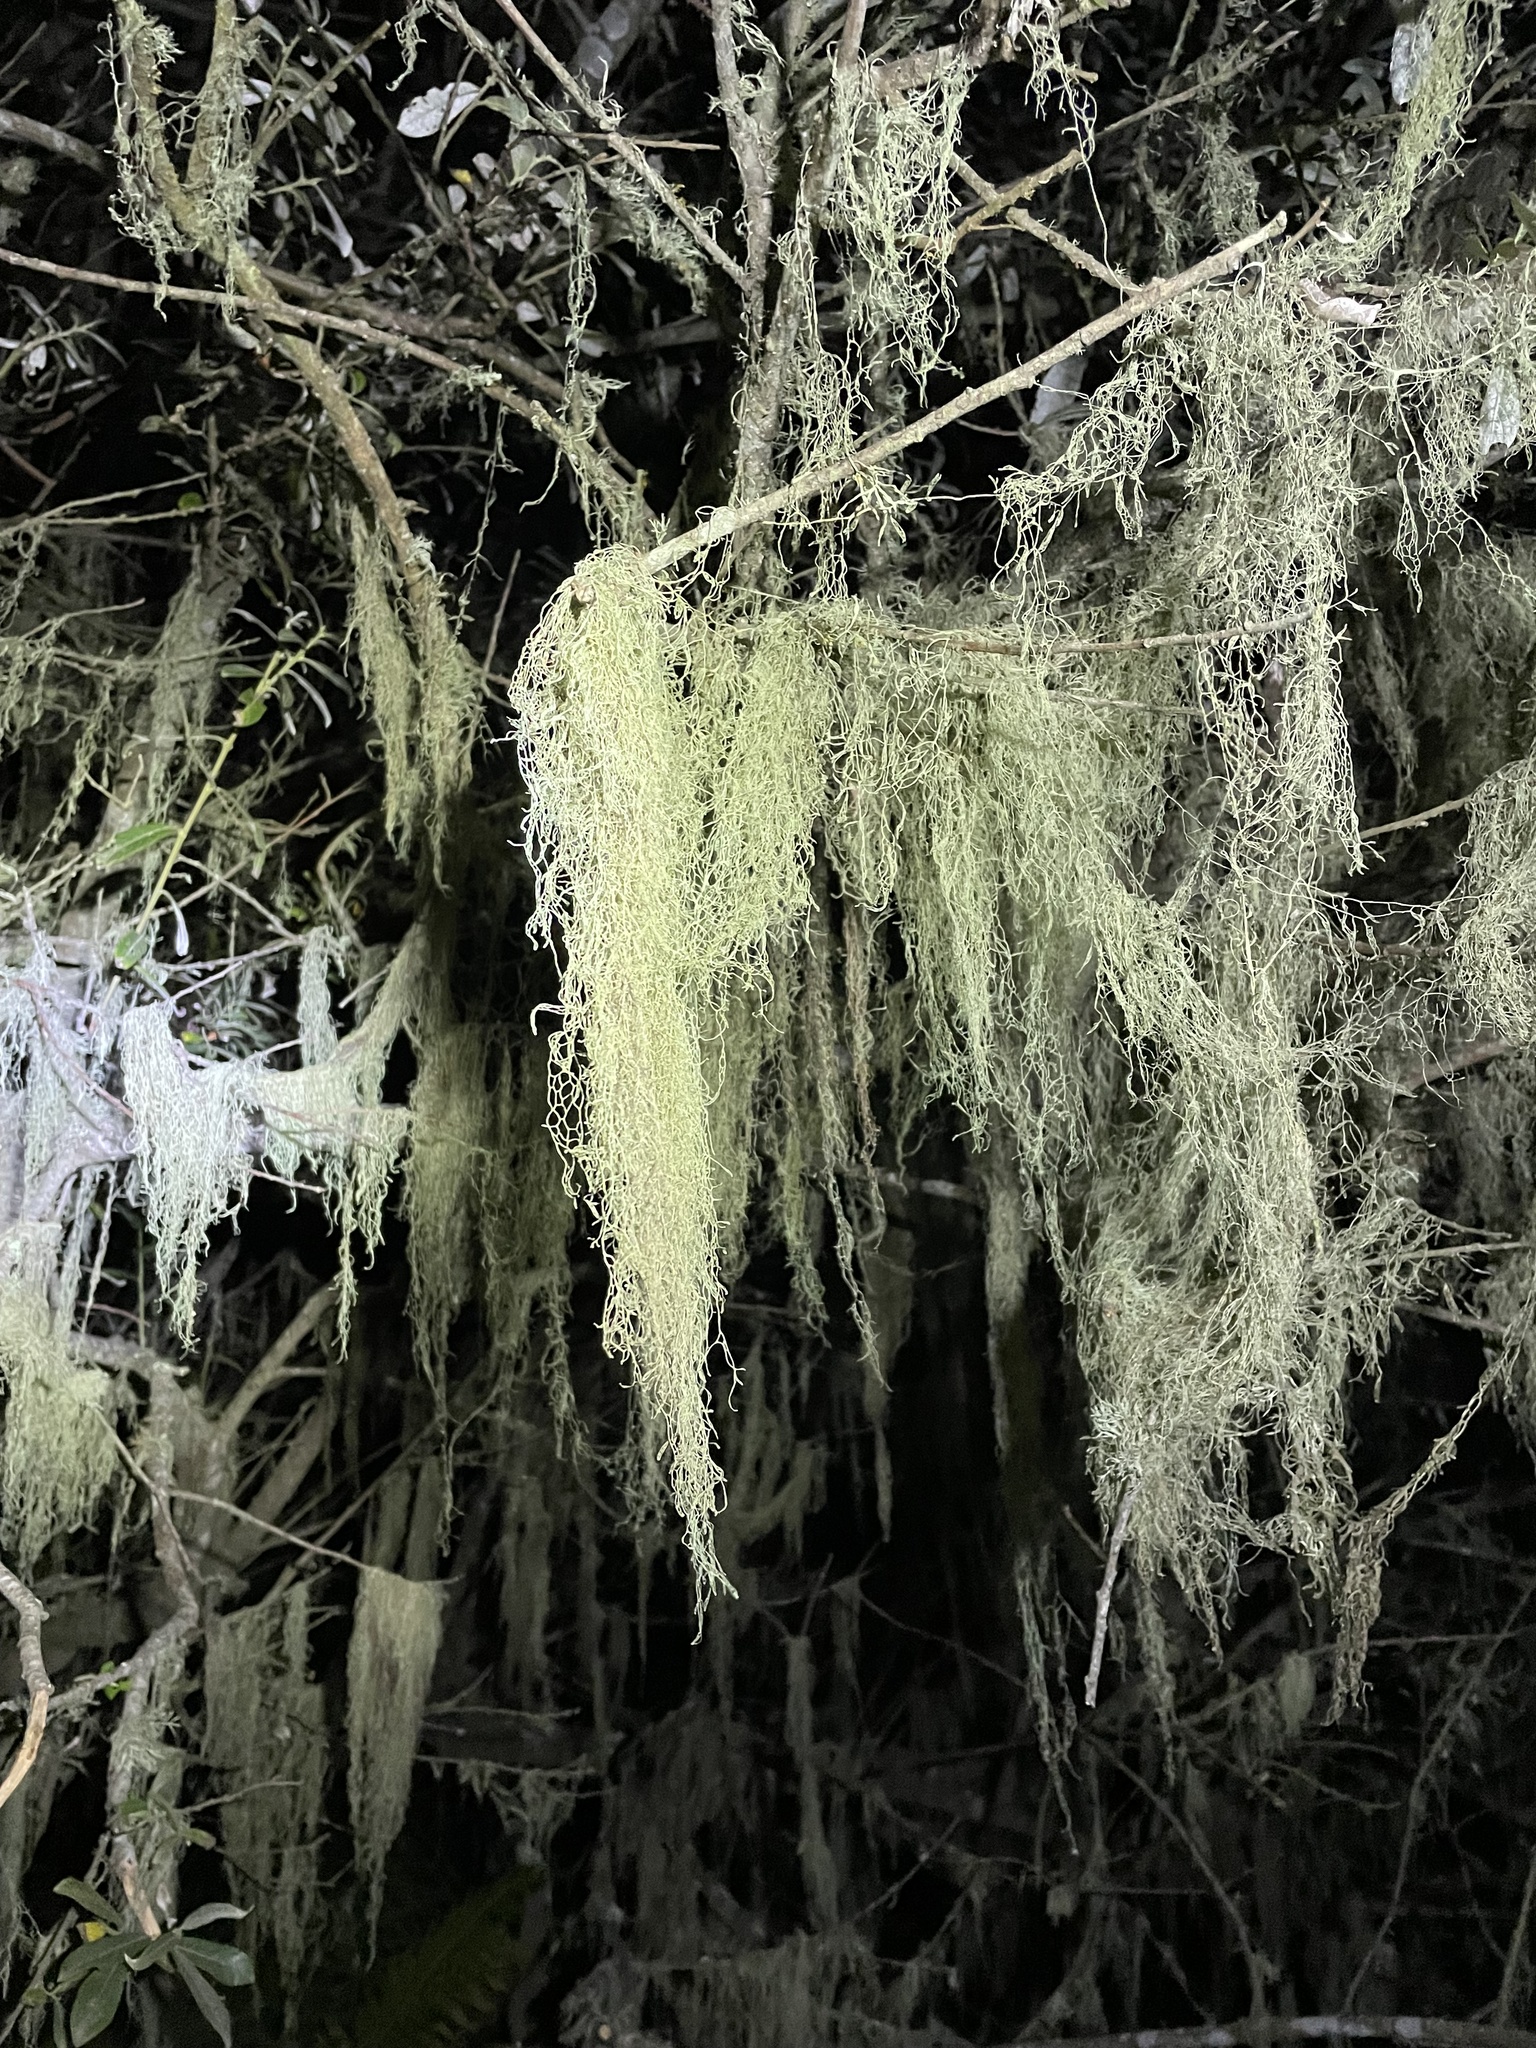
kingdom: Fungi
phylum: Ascomycota
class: Lecanoromycetes
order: Lecanorales
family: Ramalinaceae
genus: Ramalina
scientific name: Ramalina menziesii
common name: Lace lichen
